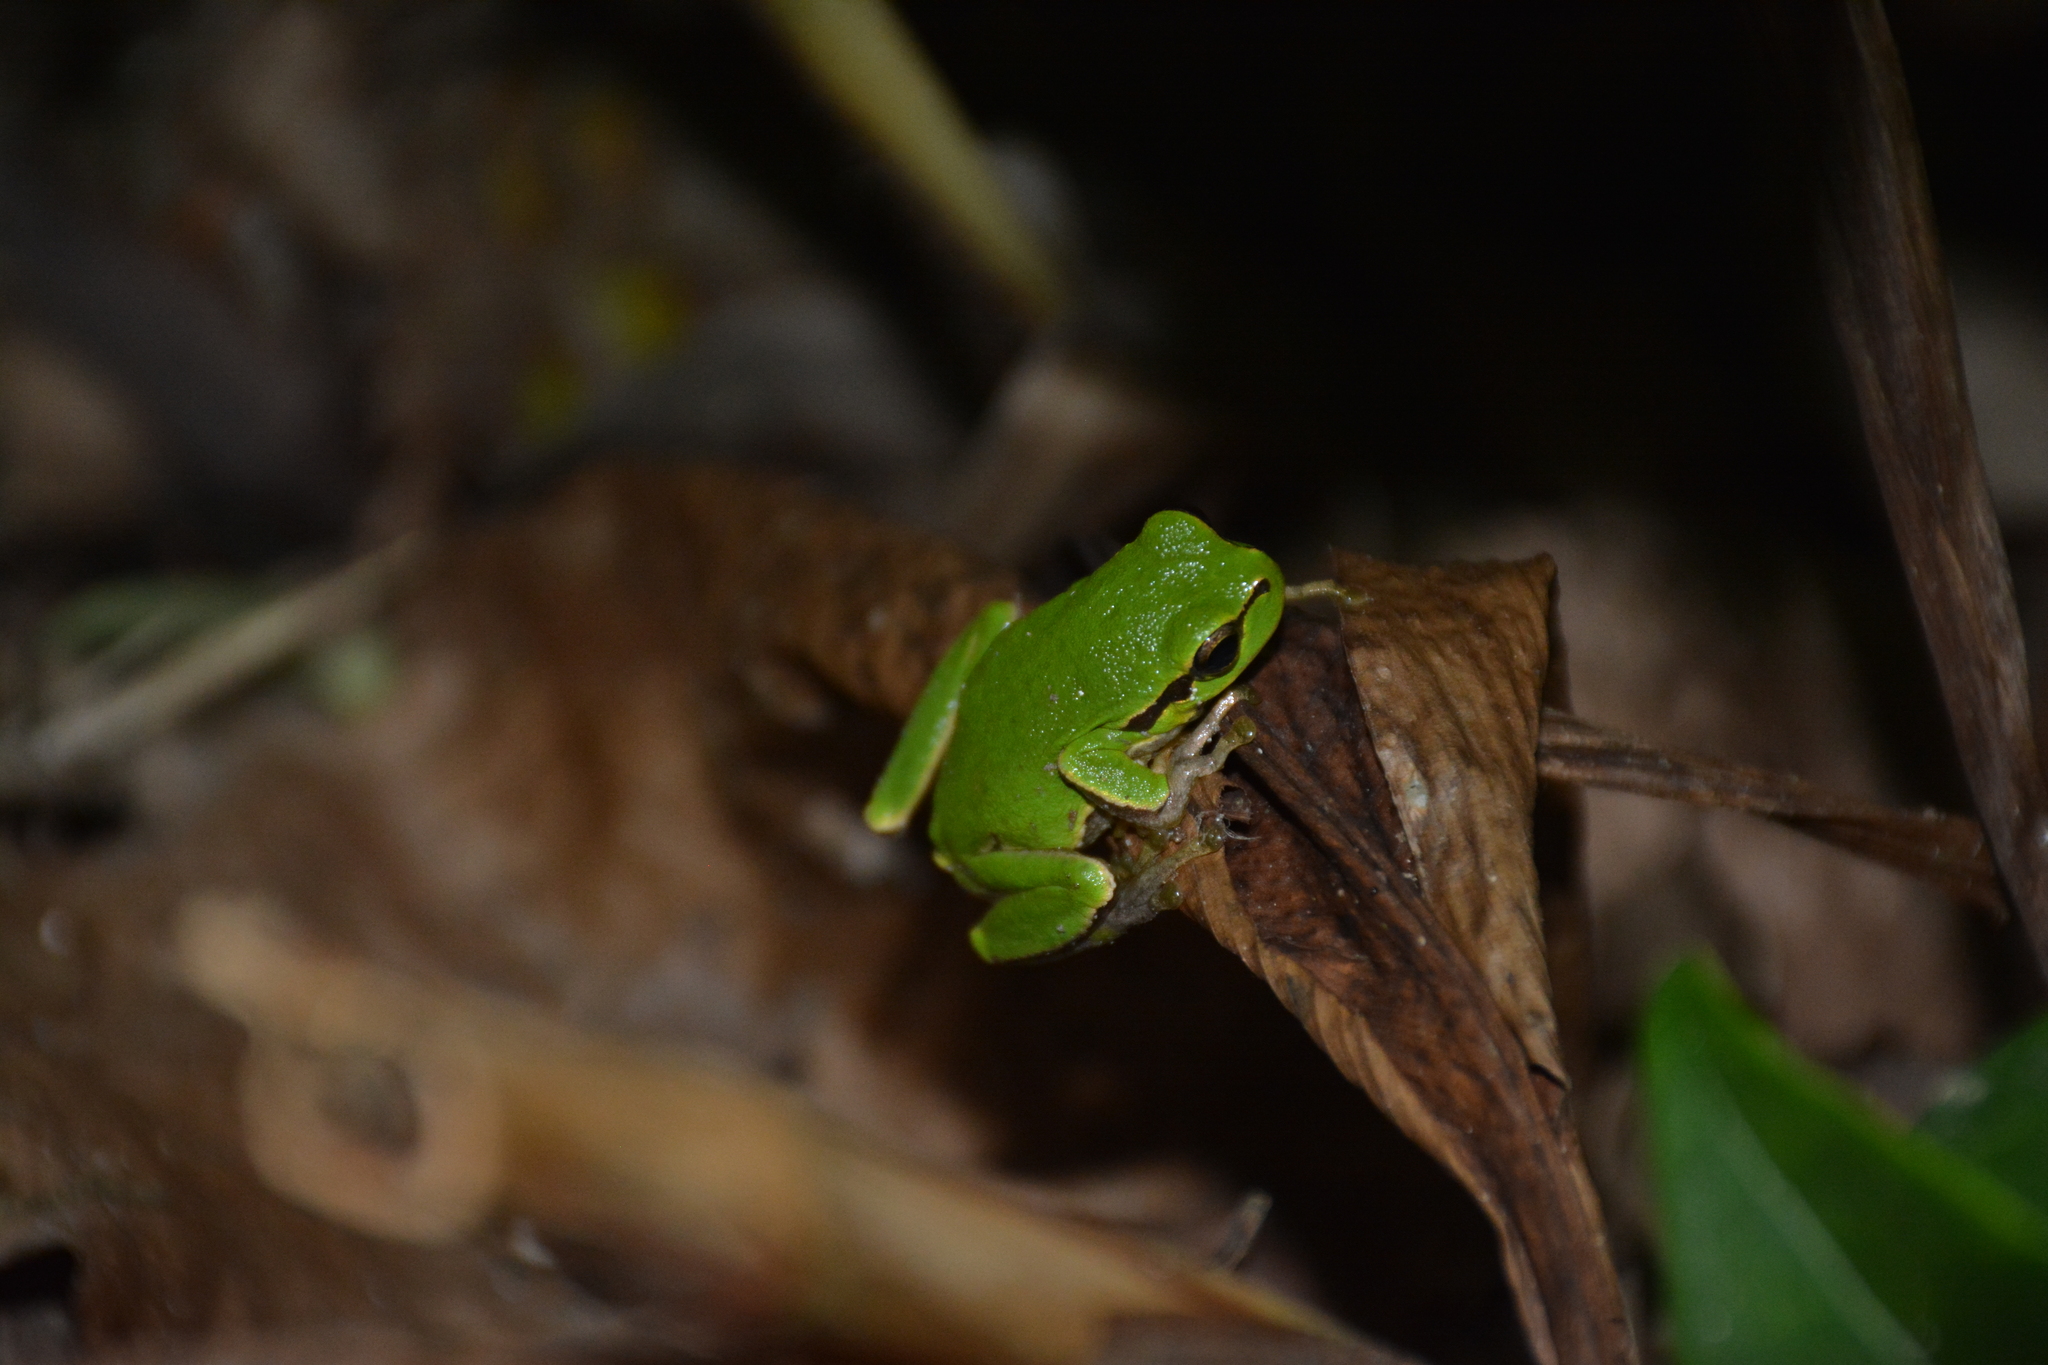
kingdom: Animalia
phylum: Chordata
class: Amphibia
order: Anura
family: Hylidae
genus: Hyla
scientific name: Hyla orientalis
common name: Caucasian treefrog
